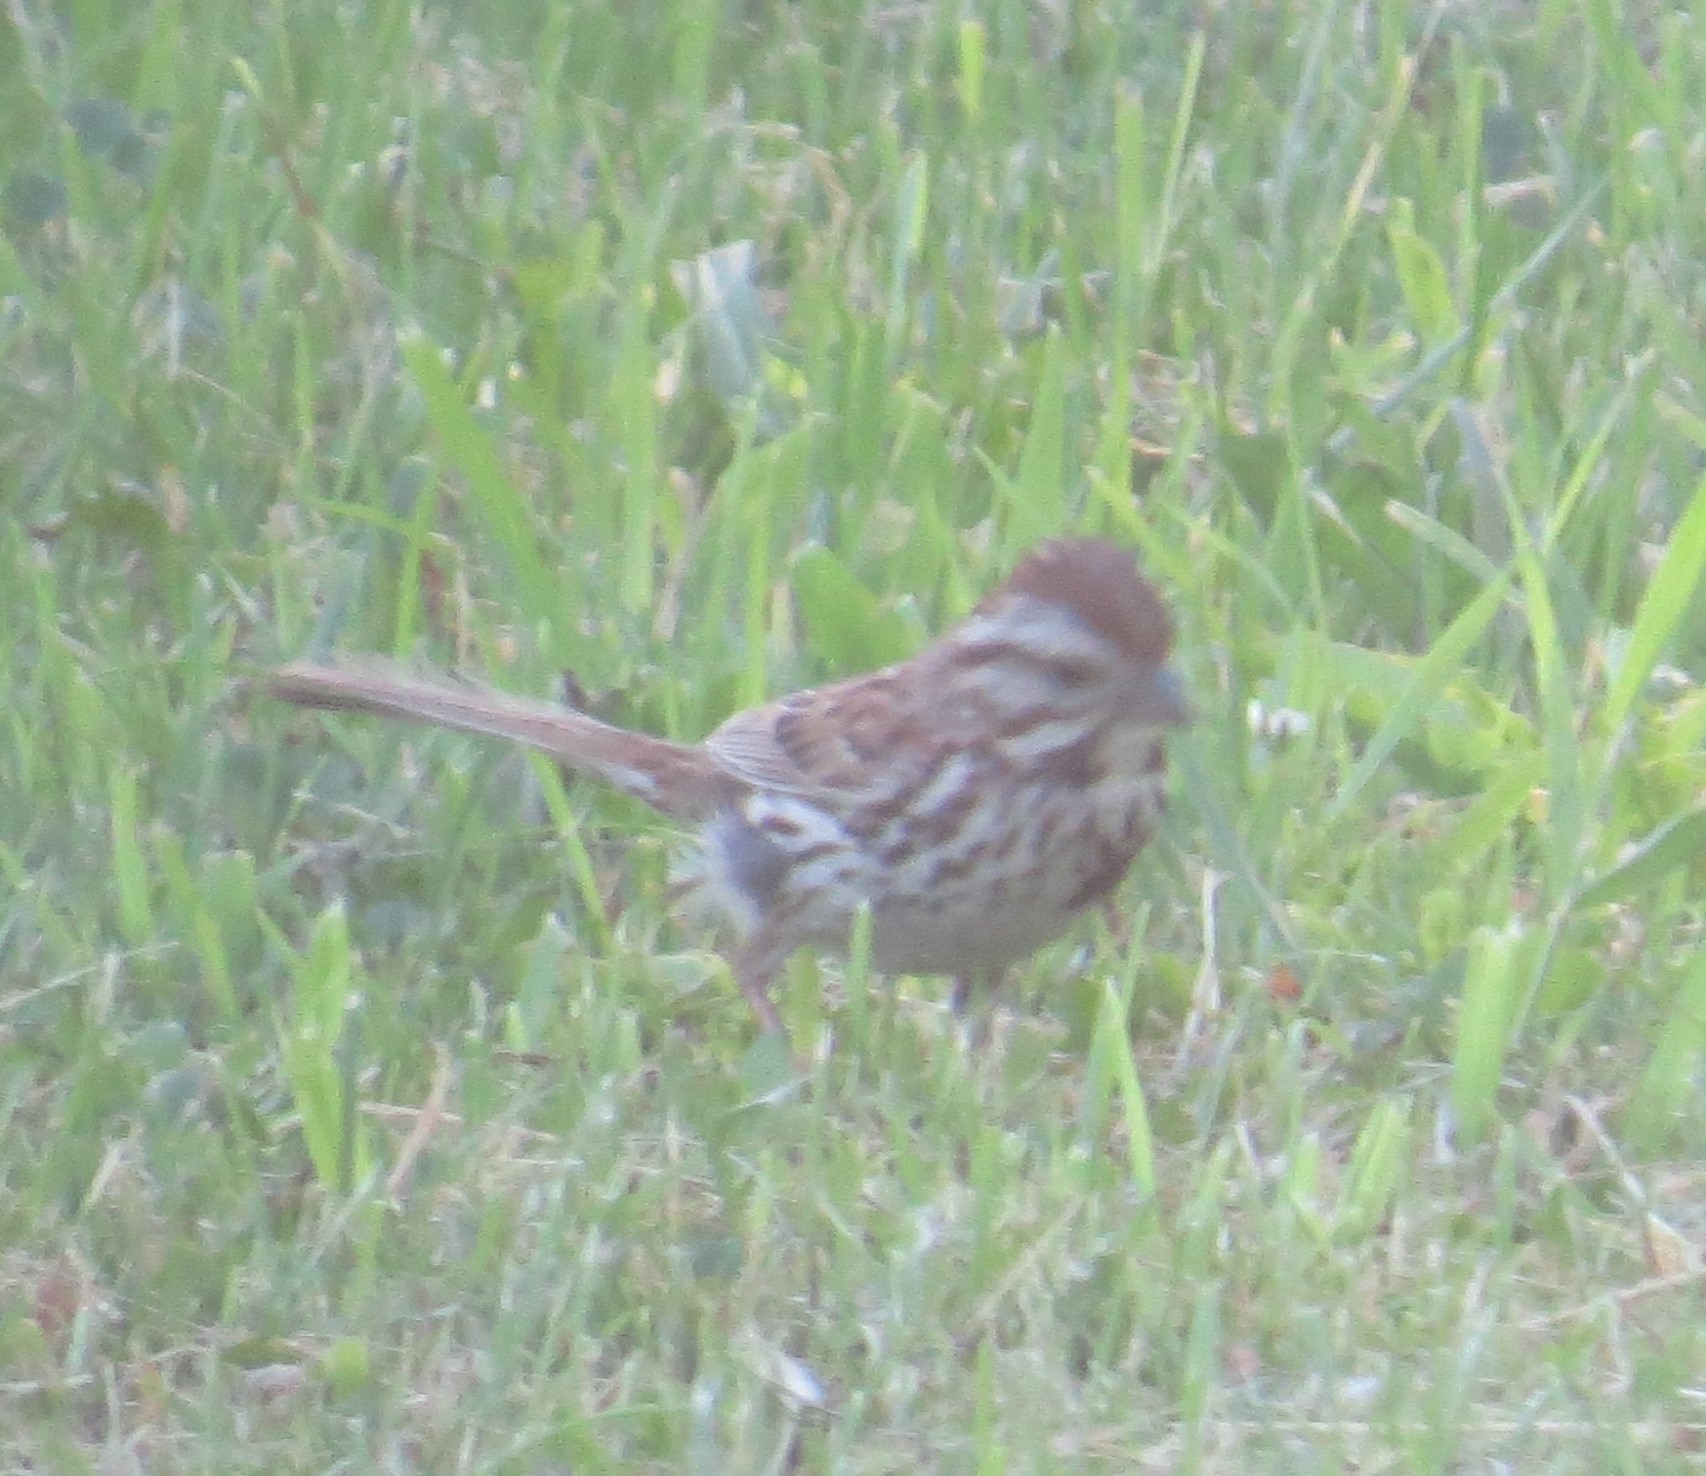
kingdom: Animalia
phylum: Chordata
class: Aves
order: Passeriformes
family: Passerellidae
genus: Melospiza
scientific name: Melospiza melodia
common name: Song sparrow
